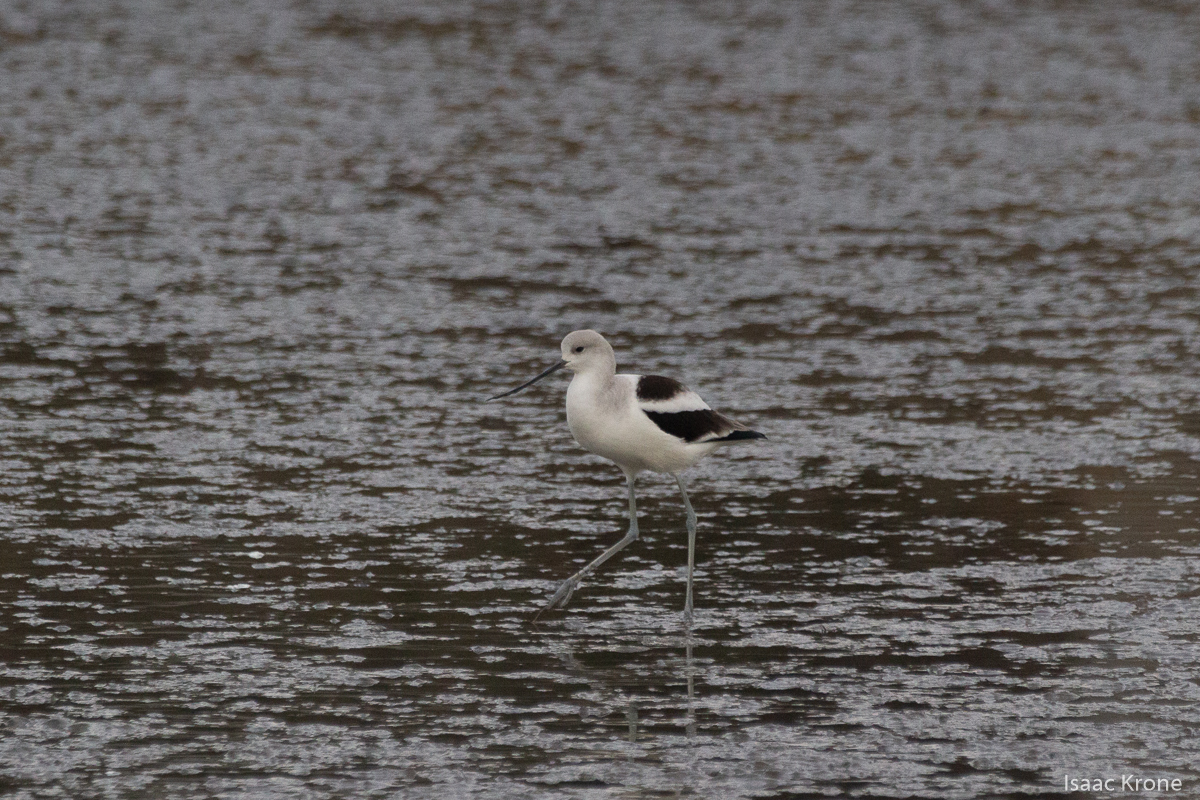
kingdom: Animalia
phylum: Chordata
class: Aves
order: Charadriiformes
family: Recurvirostridae
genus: Recurvirostra
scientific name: Recurvirostra americana
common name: American avocet
